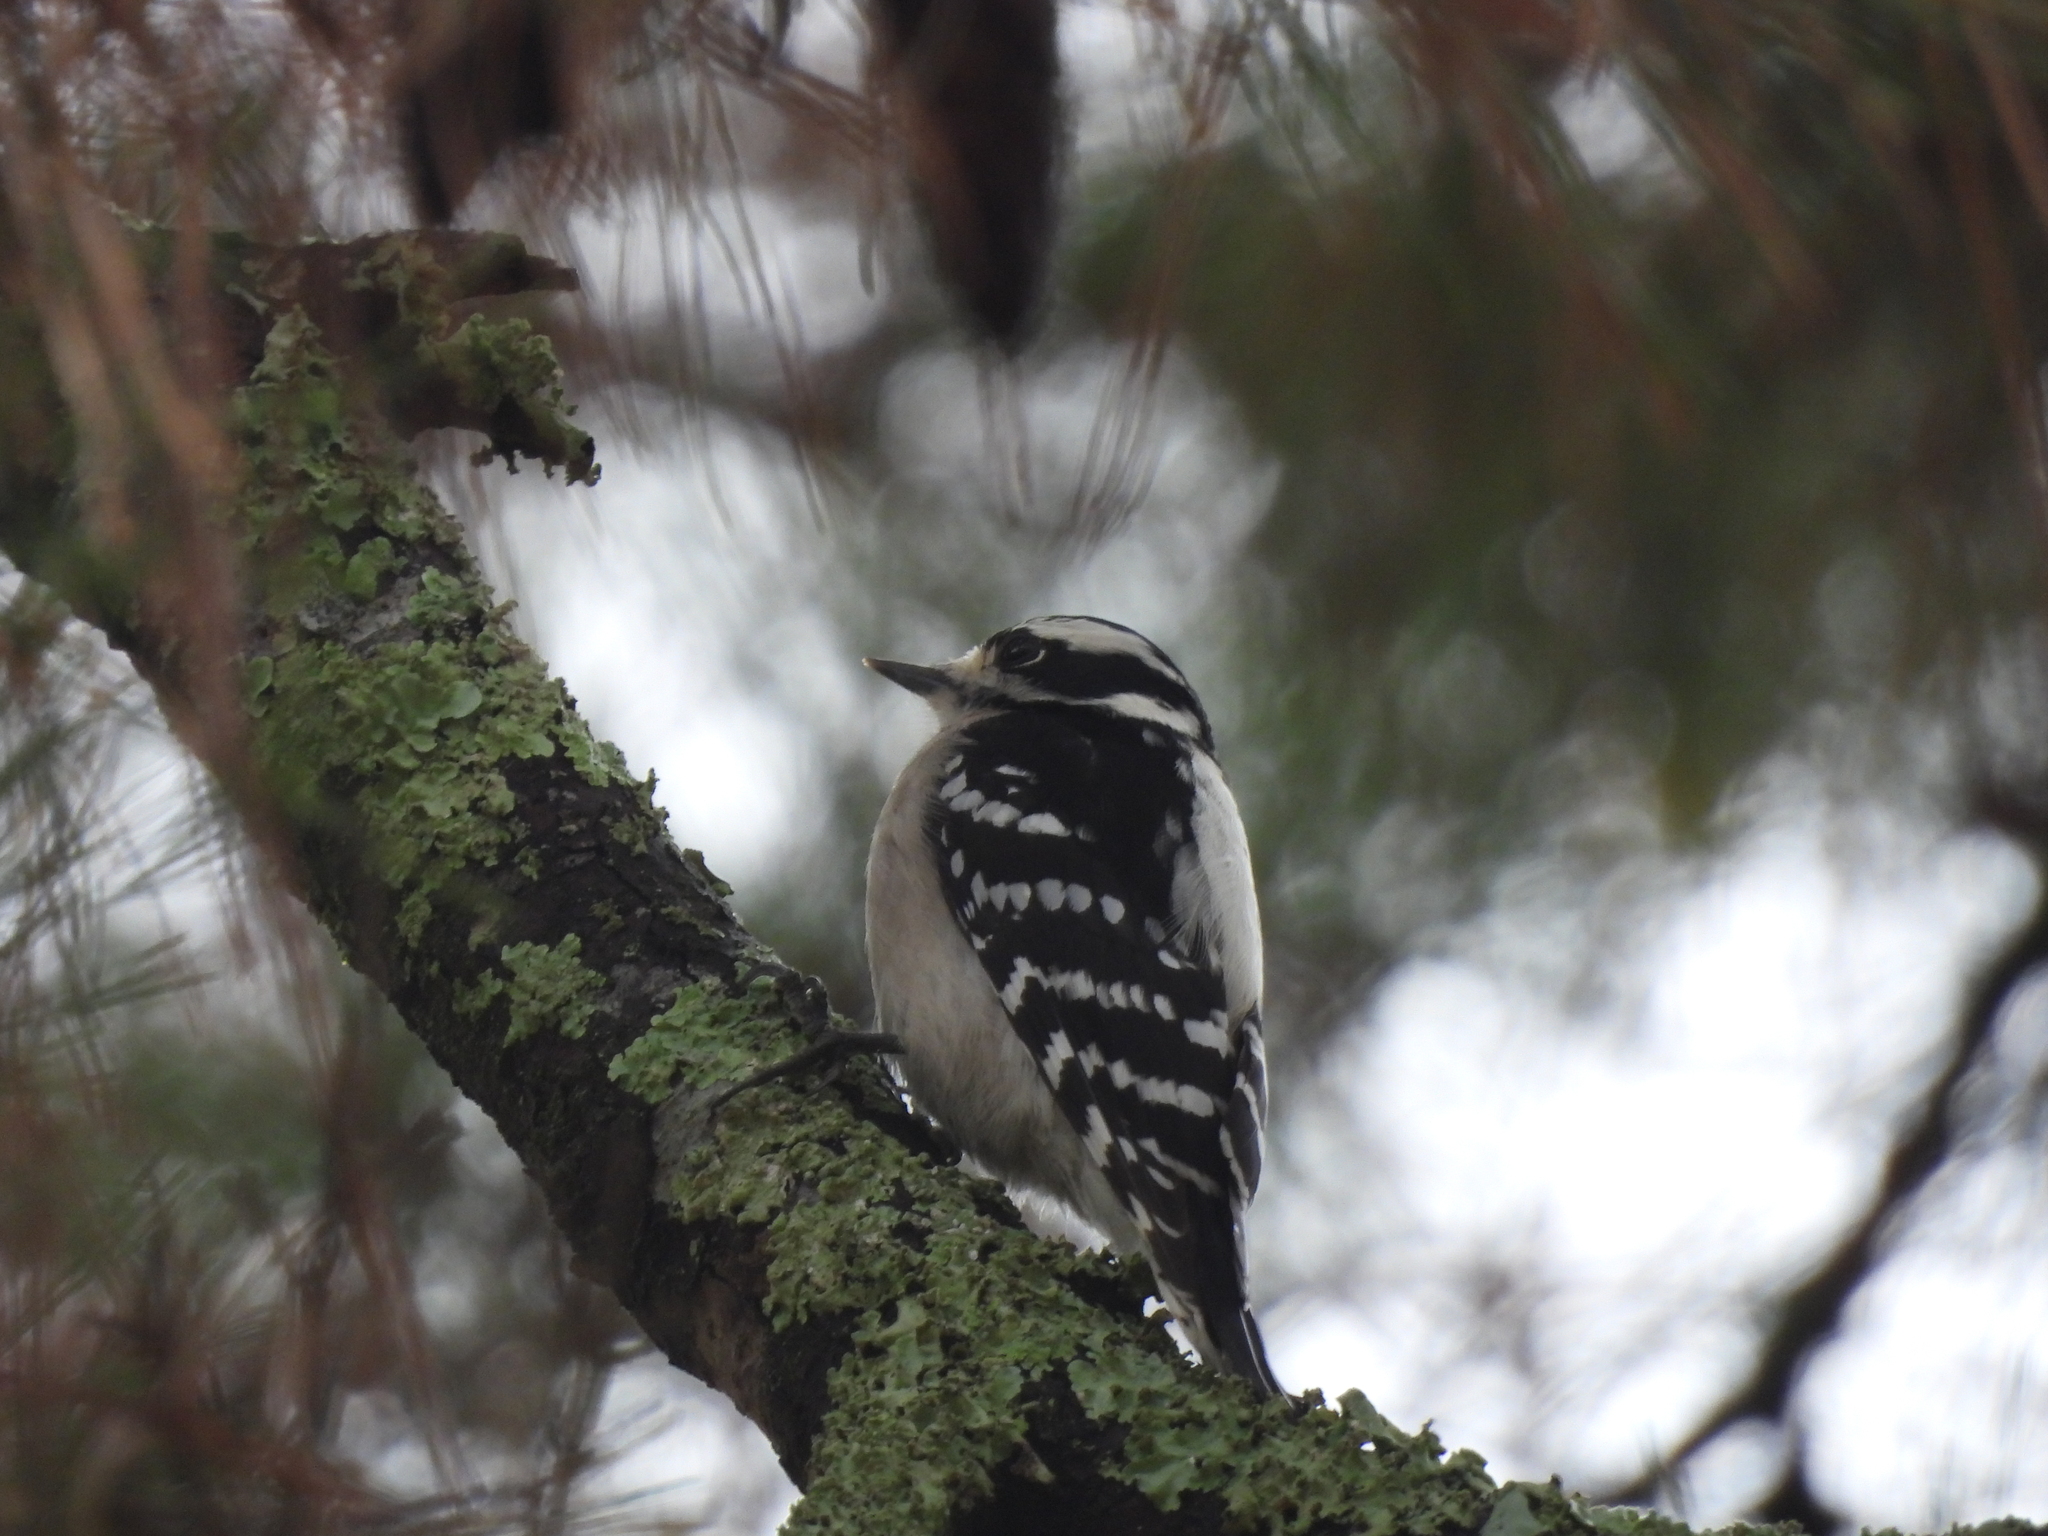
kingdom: Animalia
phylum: Chordata
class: Aves
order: Piciformes
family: Picidae
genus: Dryobates
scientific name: Dryobates pubescens
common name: Downy woodpecker
